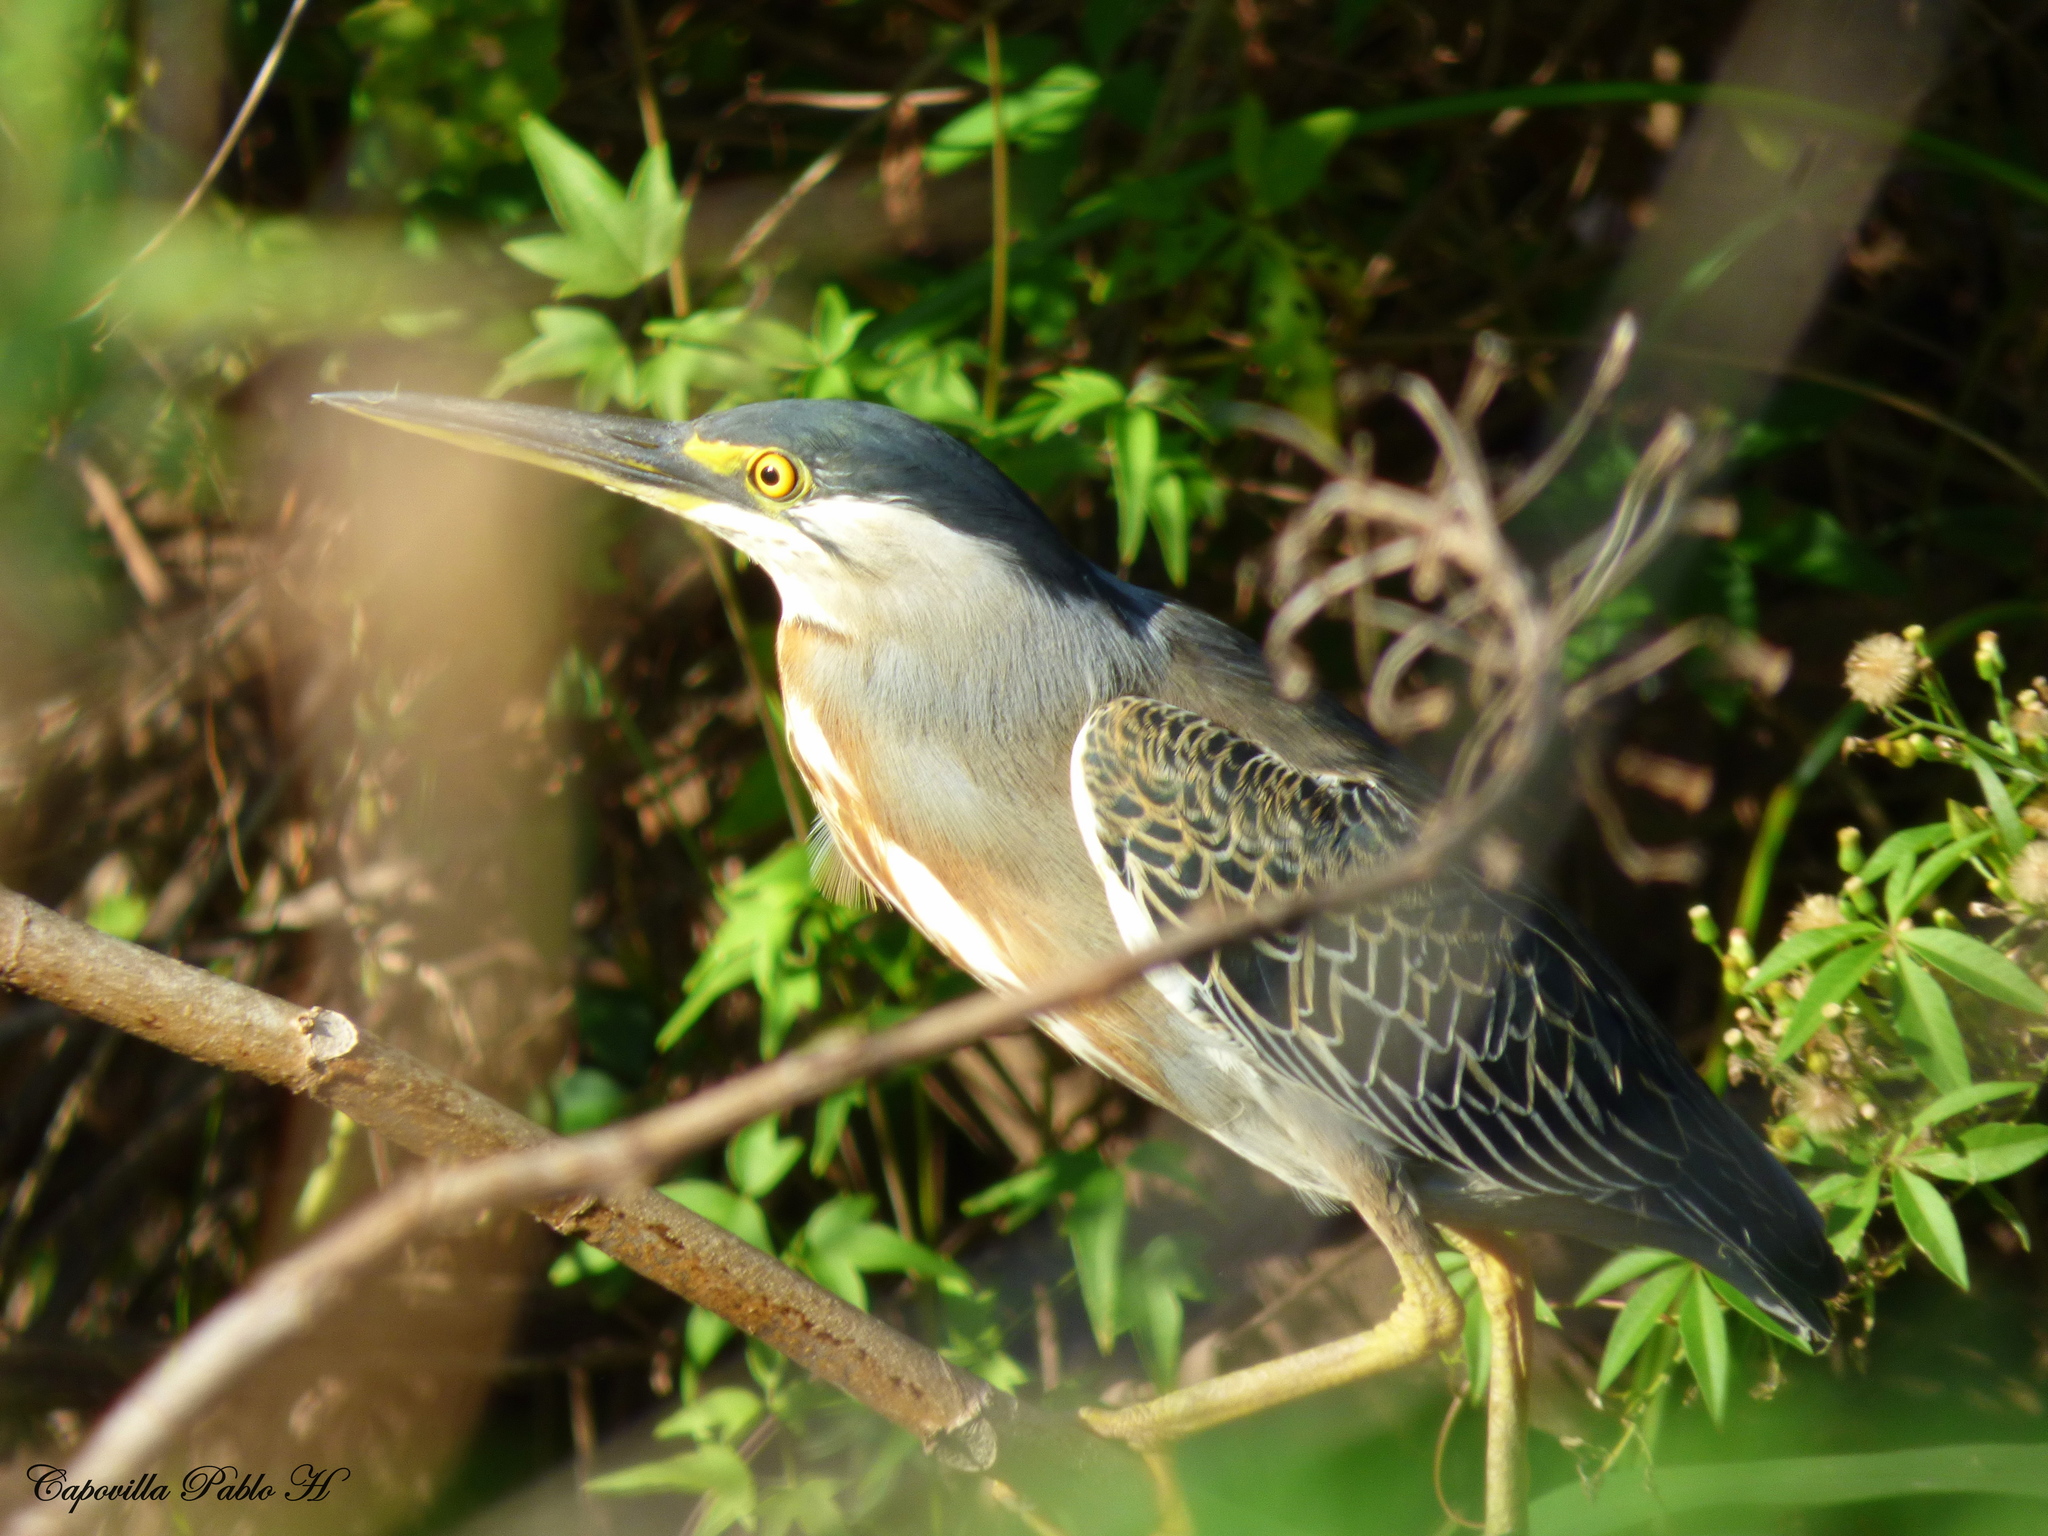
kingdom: Animalia
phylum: Chordata
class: Aves
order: Pelecaniformes
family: Ardeidae
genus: Butorides
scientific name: Butorides striata
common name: Striated heron
